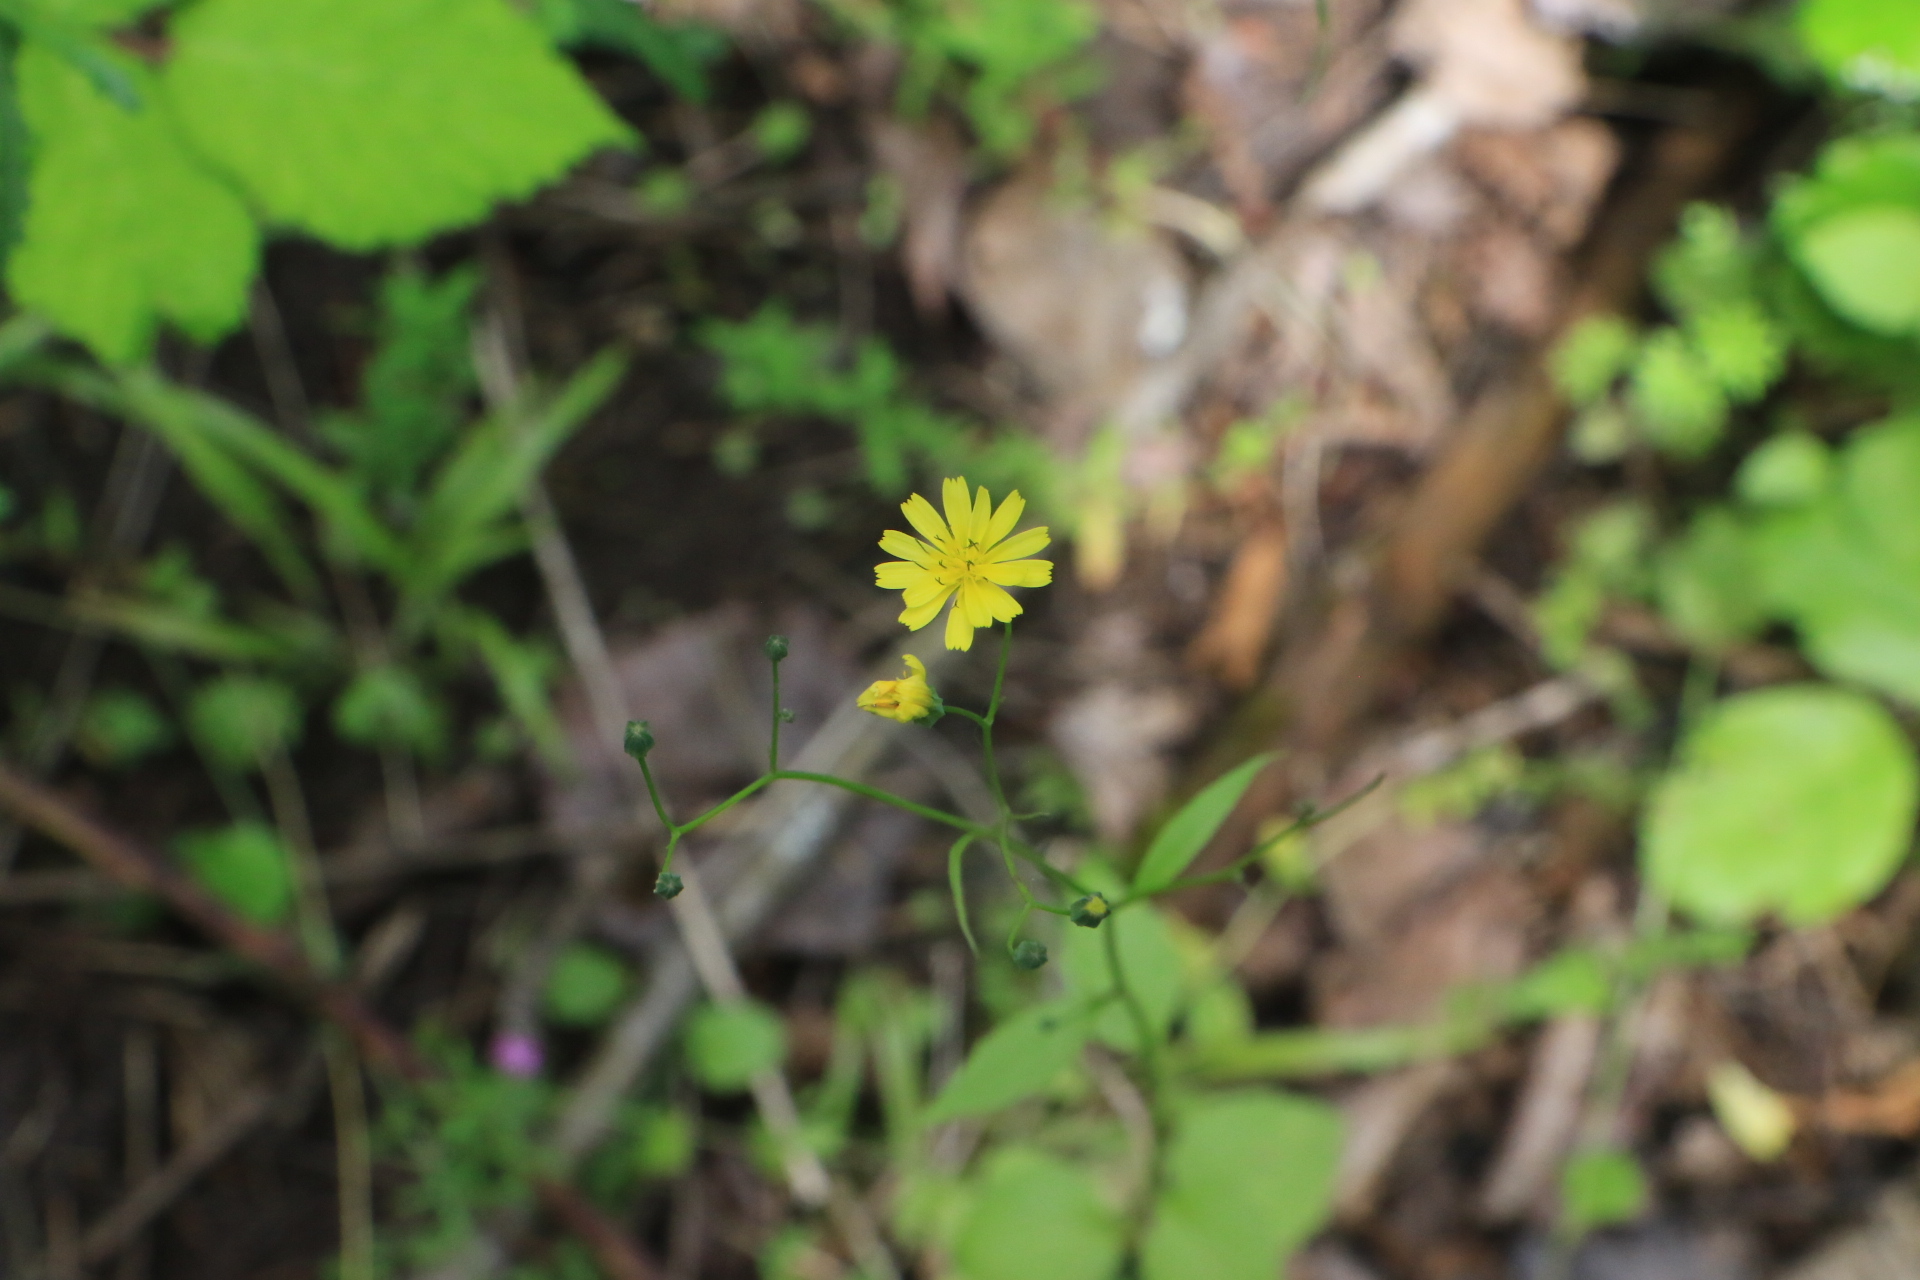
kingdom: Plantae
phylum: Tracheophyta
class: Magnoliopsida
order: Asterales
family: Asteraceae
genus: Lapsana
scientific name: Lapsana communis
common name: Nipplewort
